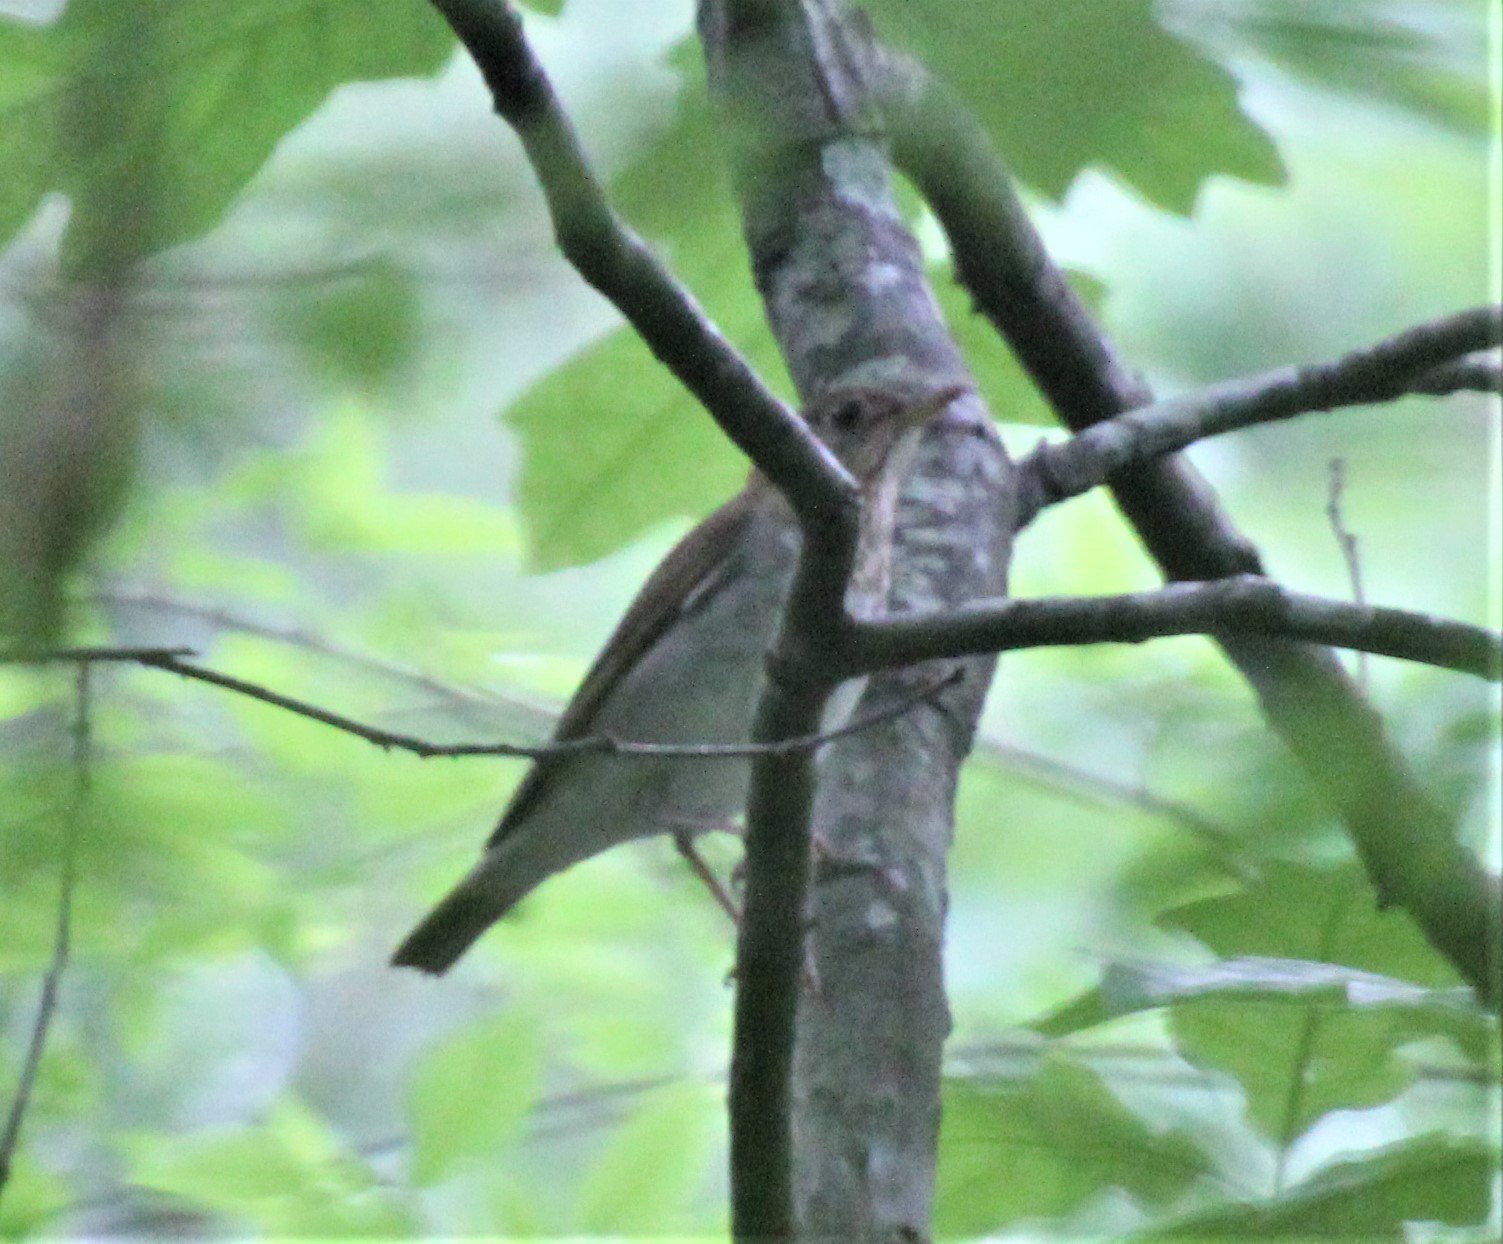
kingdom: Animalia
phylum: Chordata
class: Aves
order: Passeriformes
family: Turdidae
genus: Catharus
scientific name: Catharus fuscescens
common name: Veery
